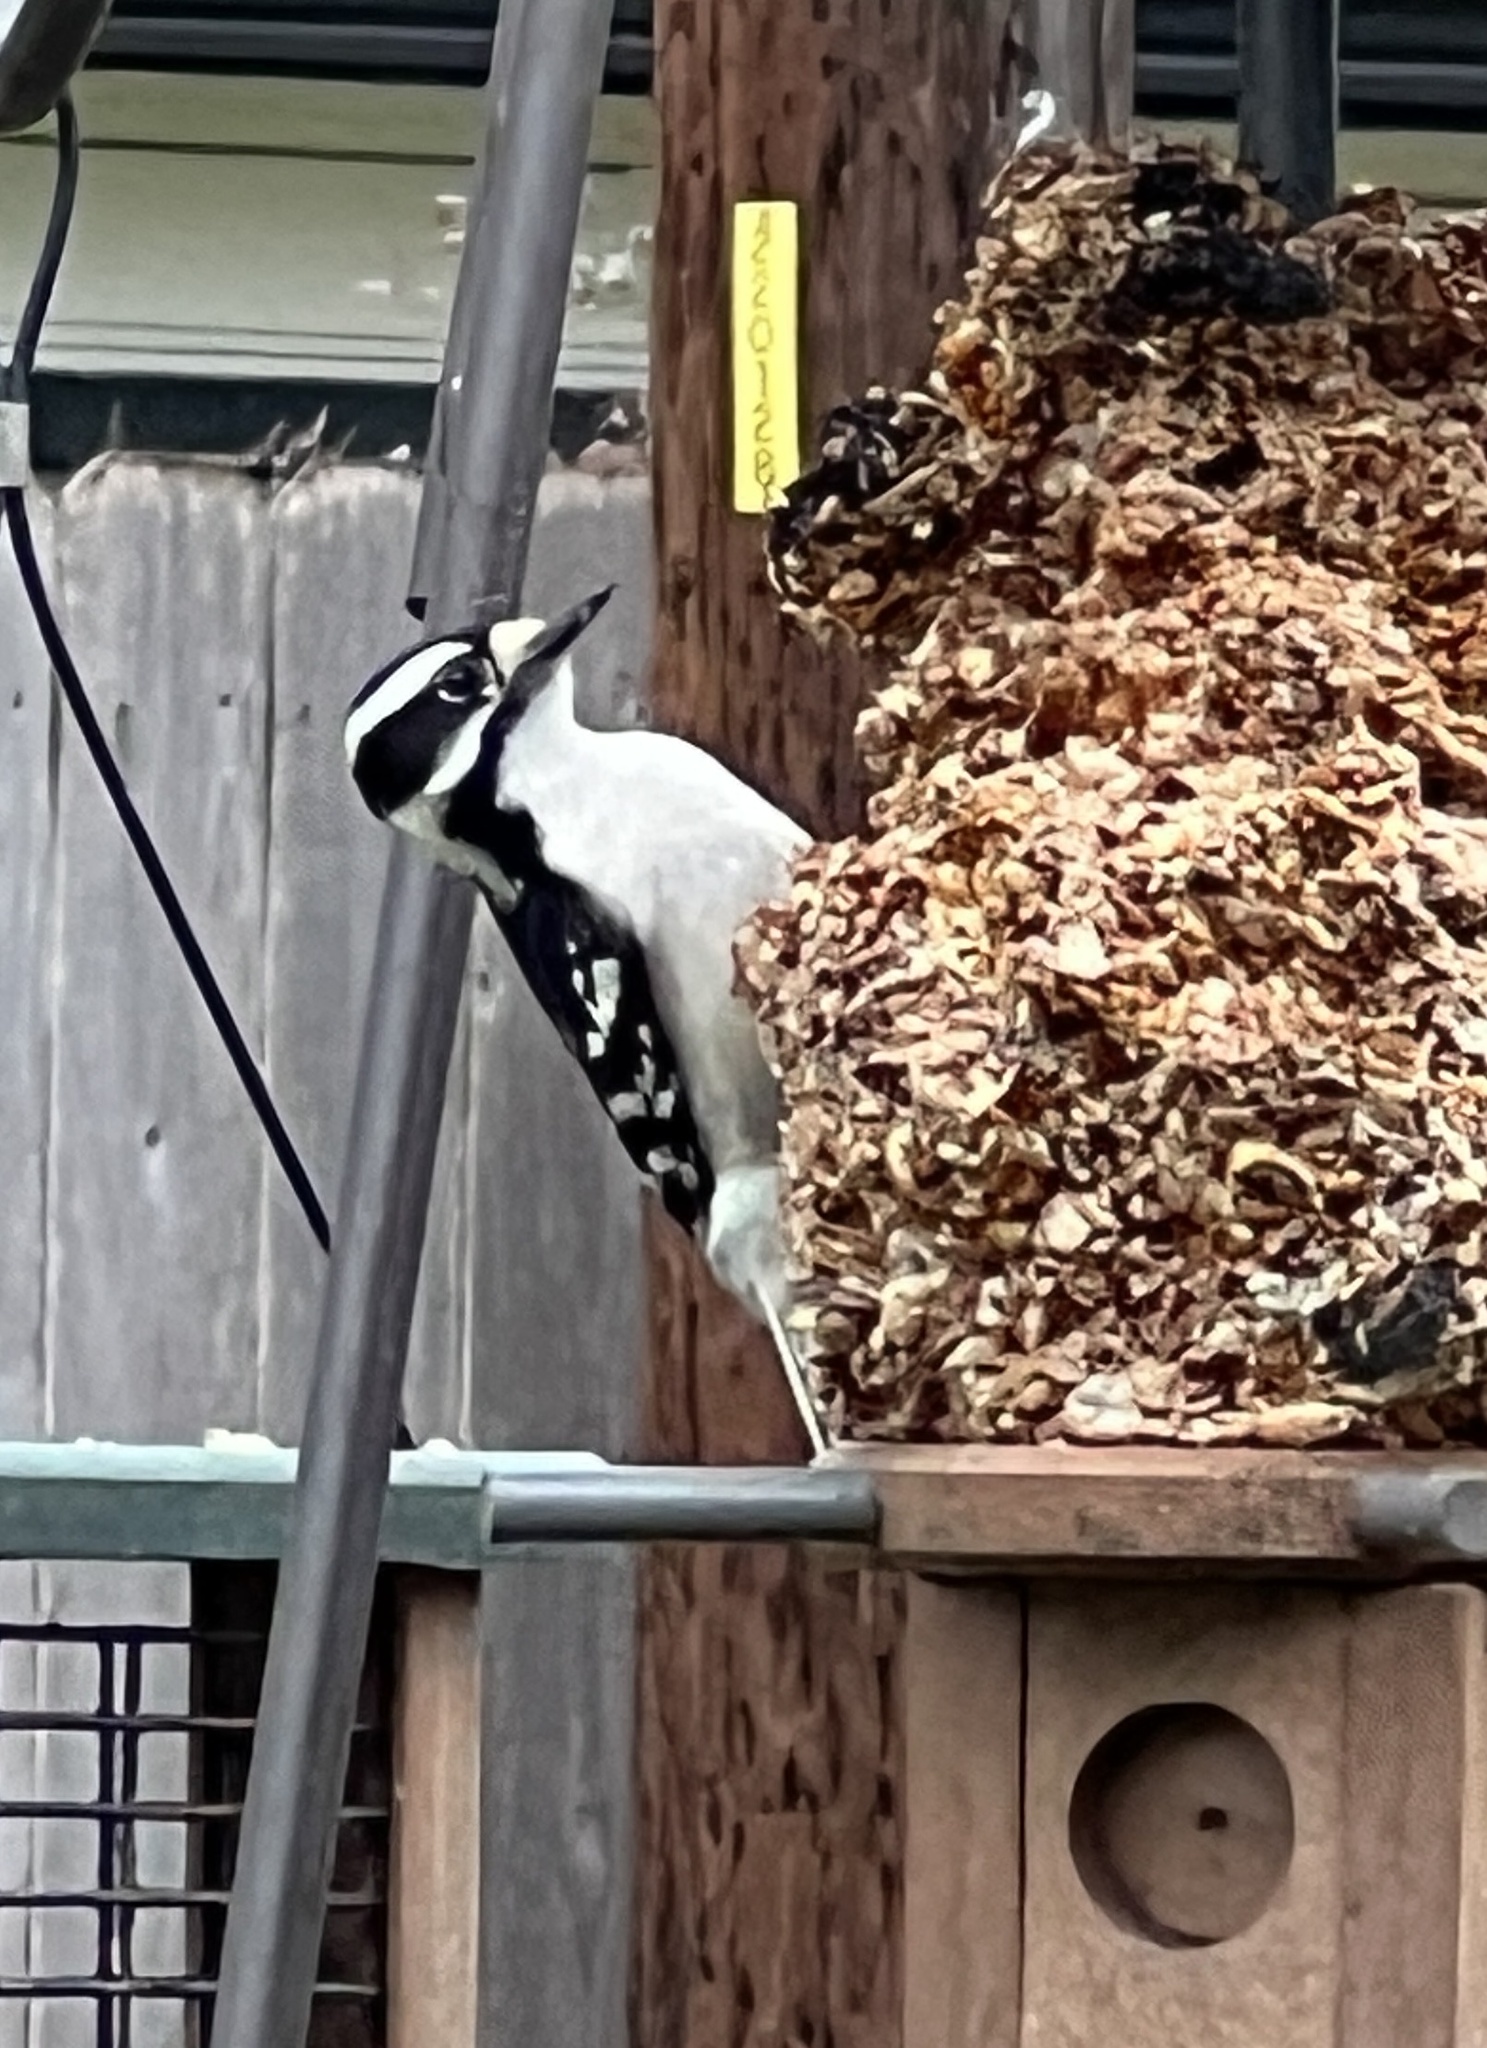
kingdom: Animalia
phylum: Chordata
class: Aves
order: Piciformes
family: Picidae
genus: Dryobates
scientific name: Dryobates pubescens
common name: Downy woodpecker
